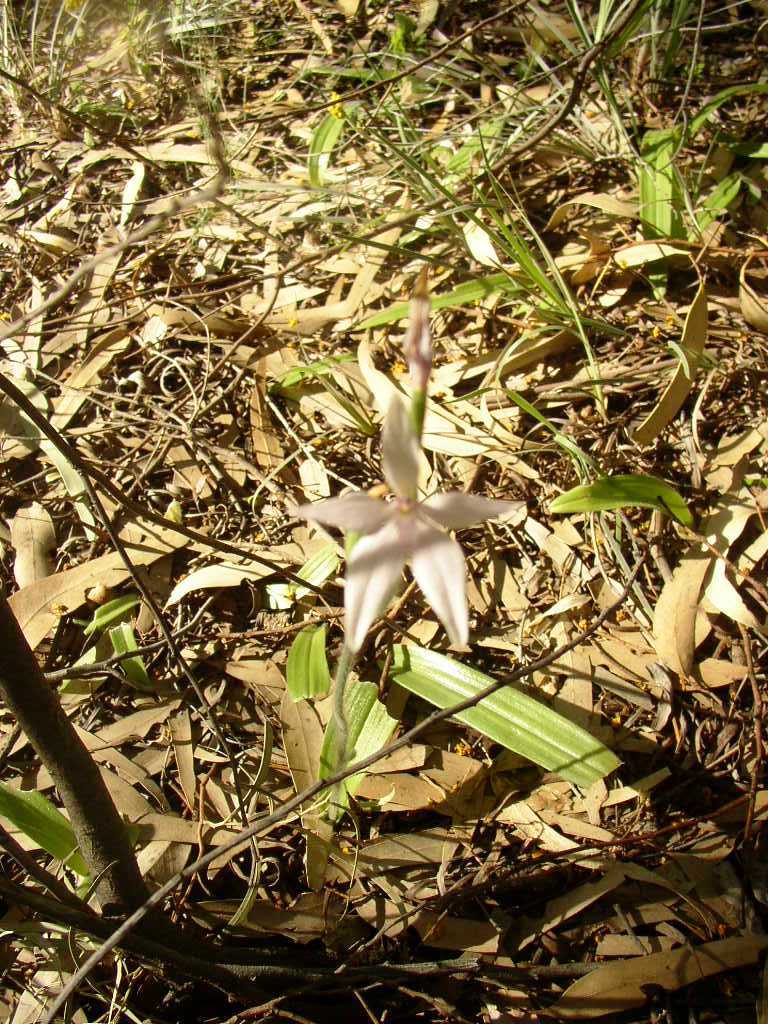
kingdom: Plantae
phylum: Tracheophyta
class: Liliopsida
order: Asparagales
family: Orchidaceae
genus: Caladenia
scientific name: Caladenia latifolia
